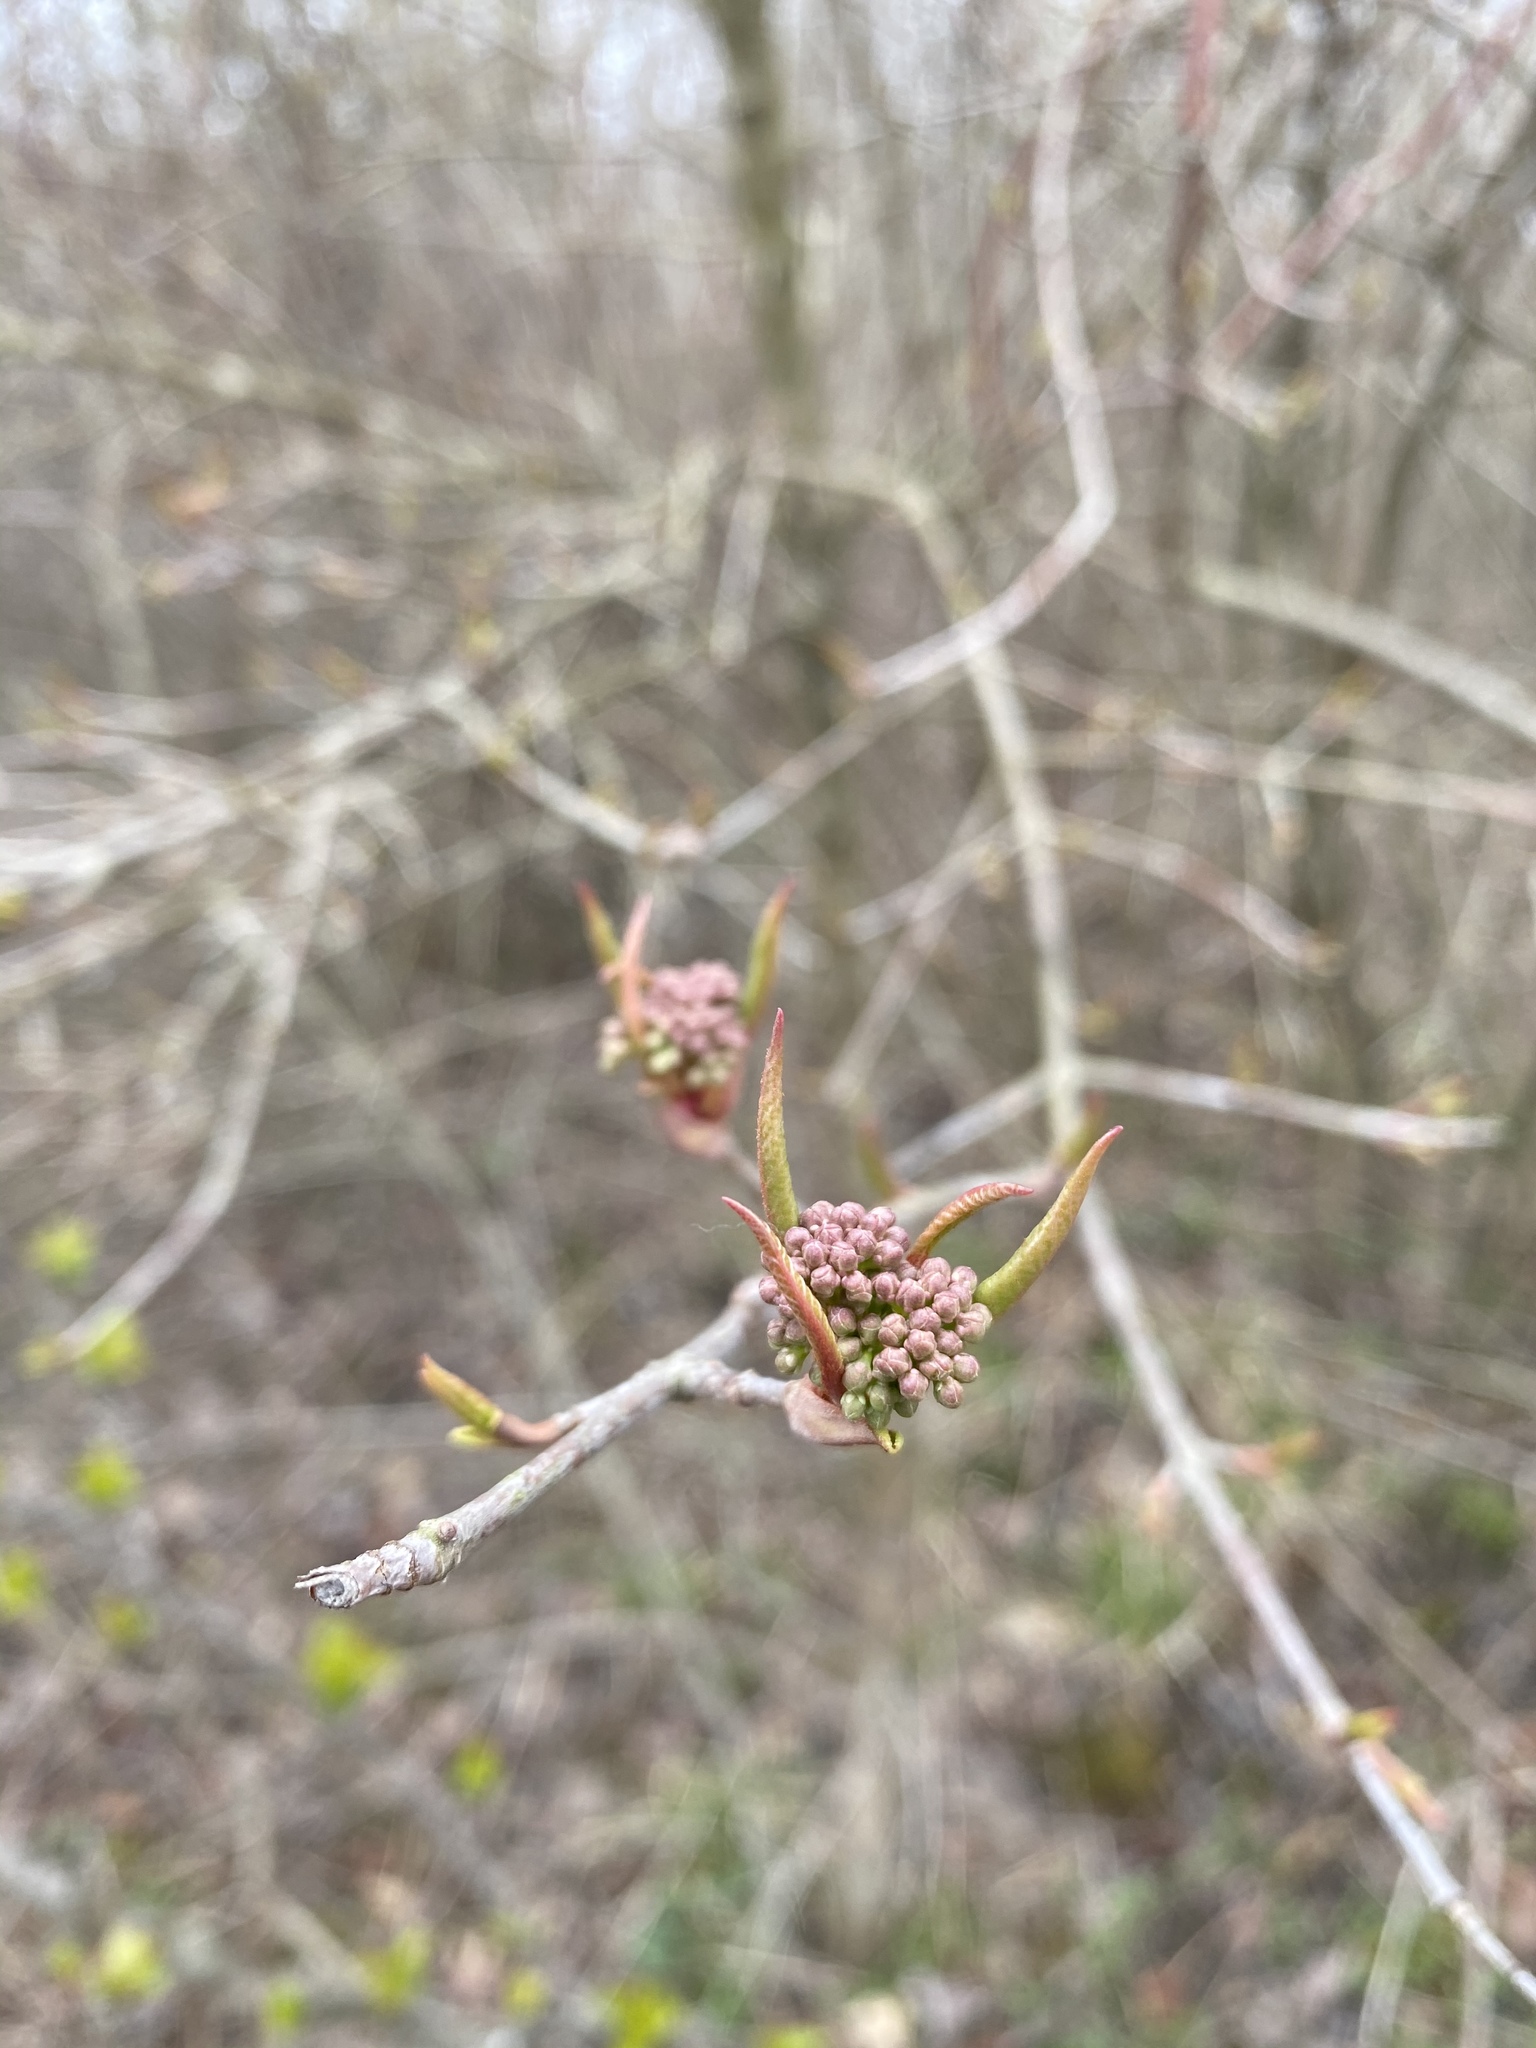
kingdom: Plantae
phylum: Tracheophyta
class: Magnoliopsida
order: Dipsacales
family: Viburnaceae
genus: Viburnum
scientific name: Viburnum prunifolium
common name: Black haw
